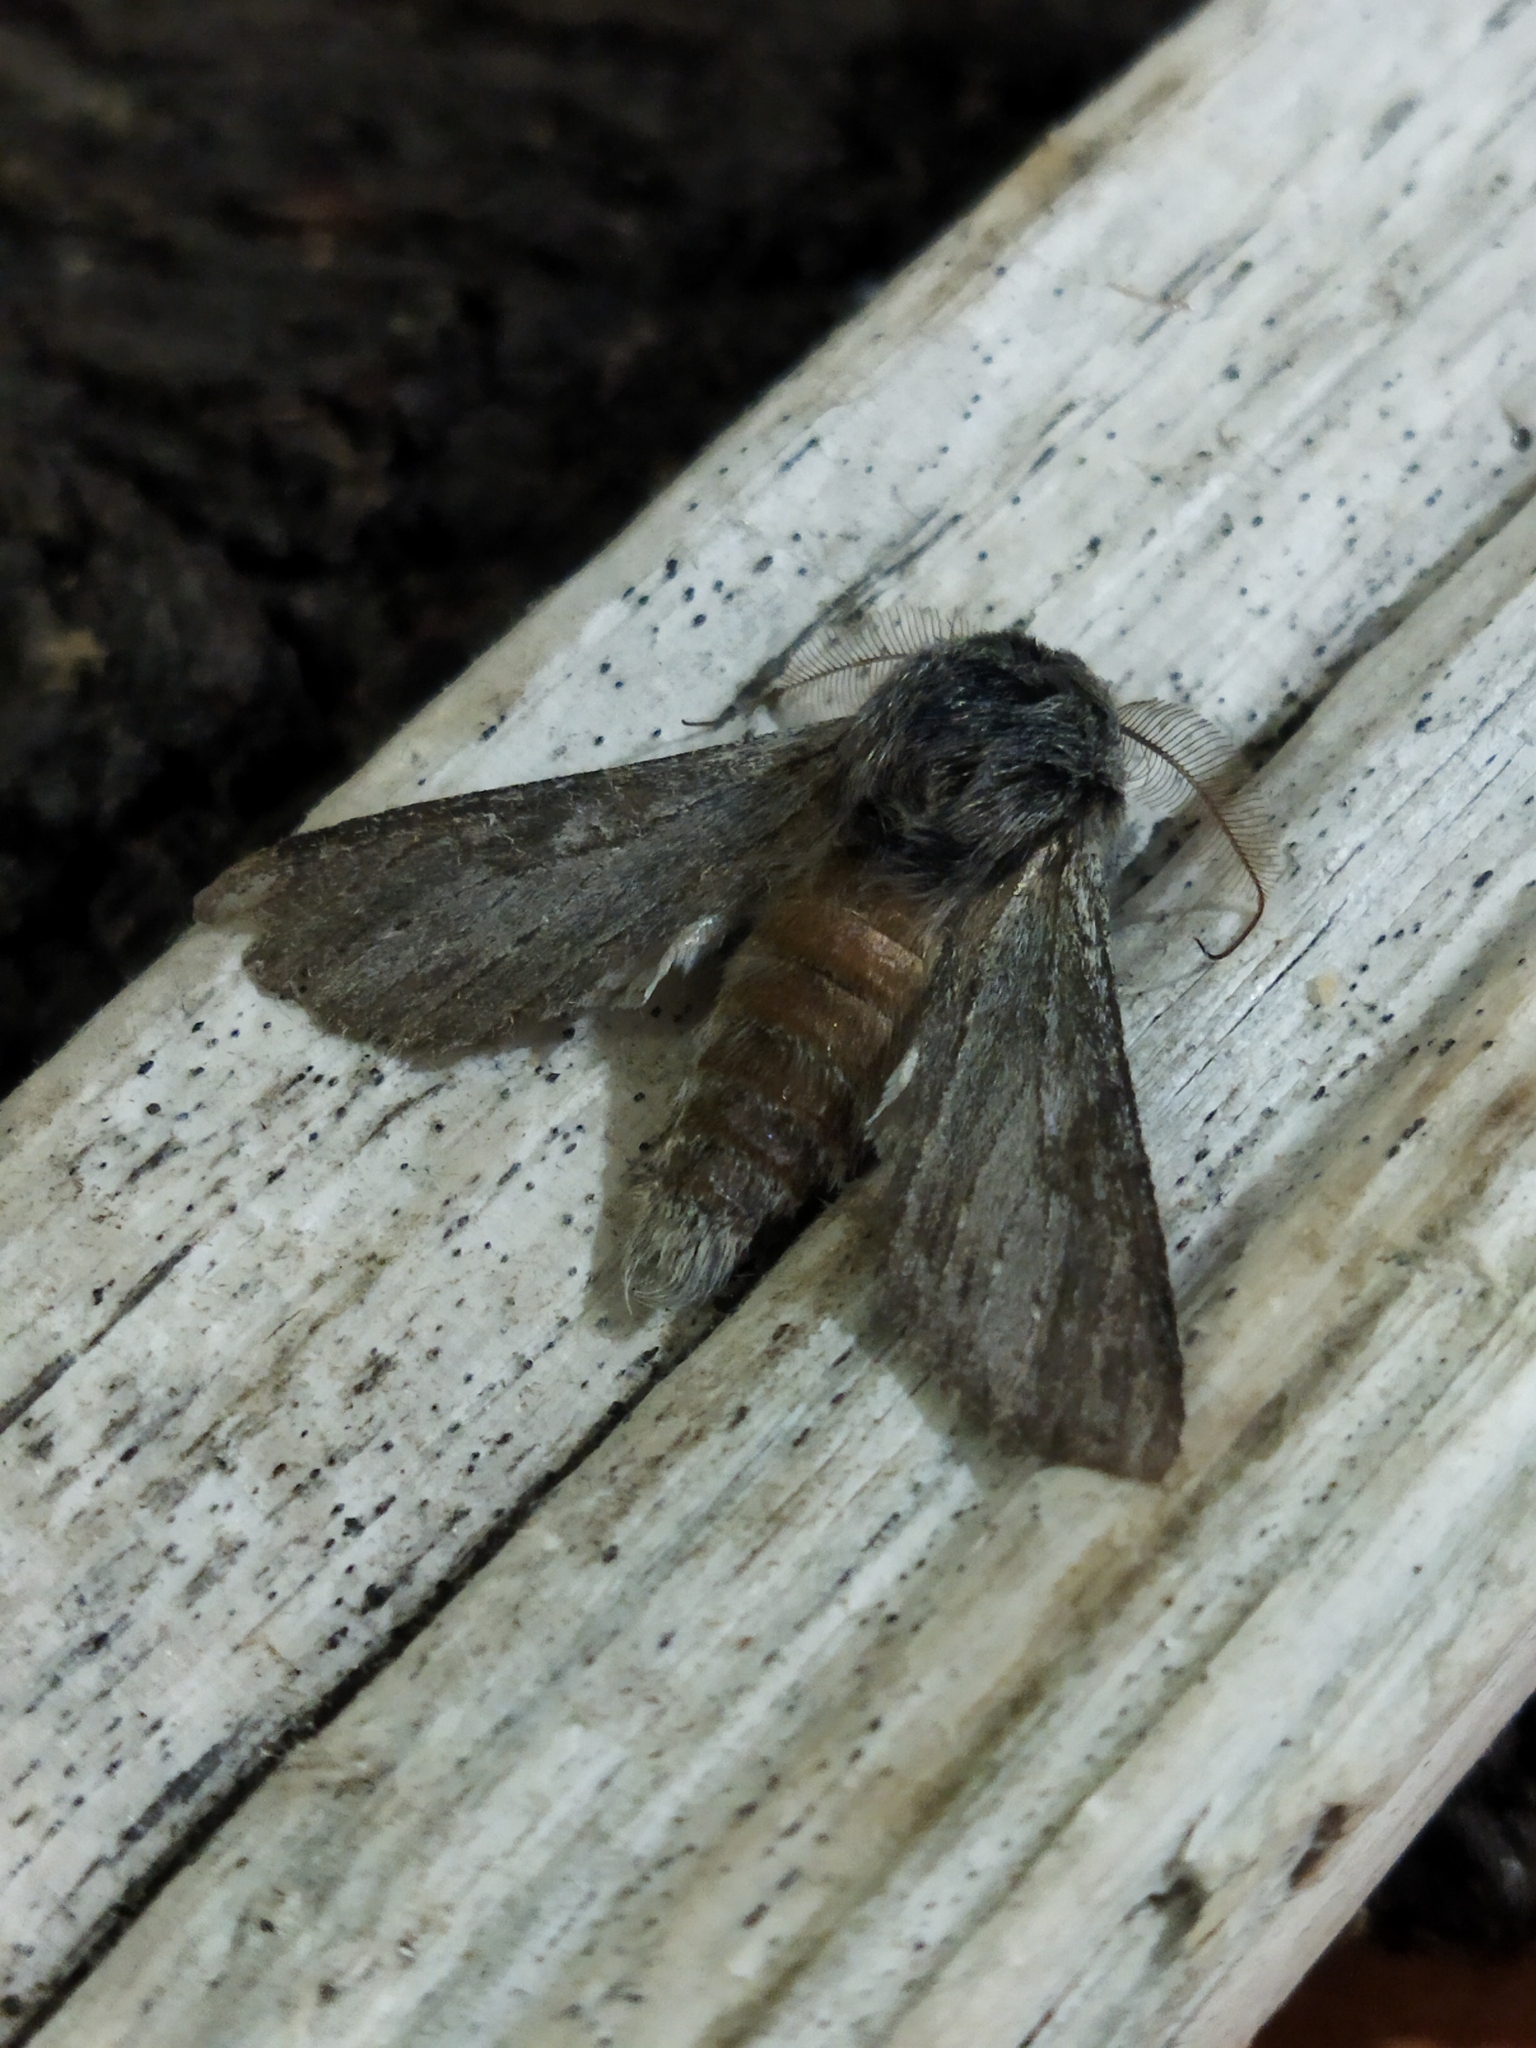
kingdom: Animalia
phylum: Arthropoda
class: Insecta
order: Lepidoptera
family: Notodontidae
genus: Dicranura
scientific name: Dicranura ulmi
